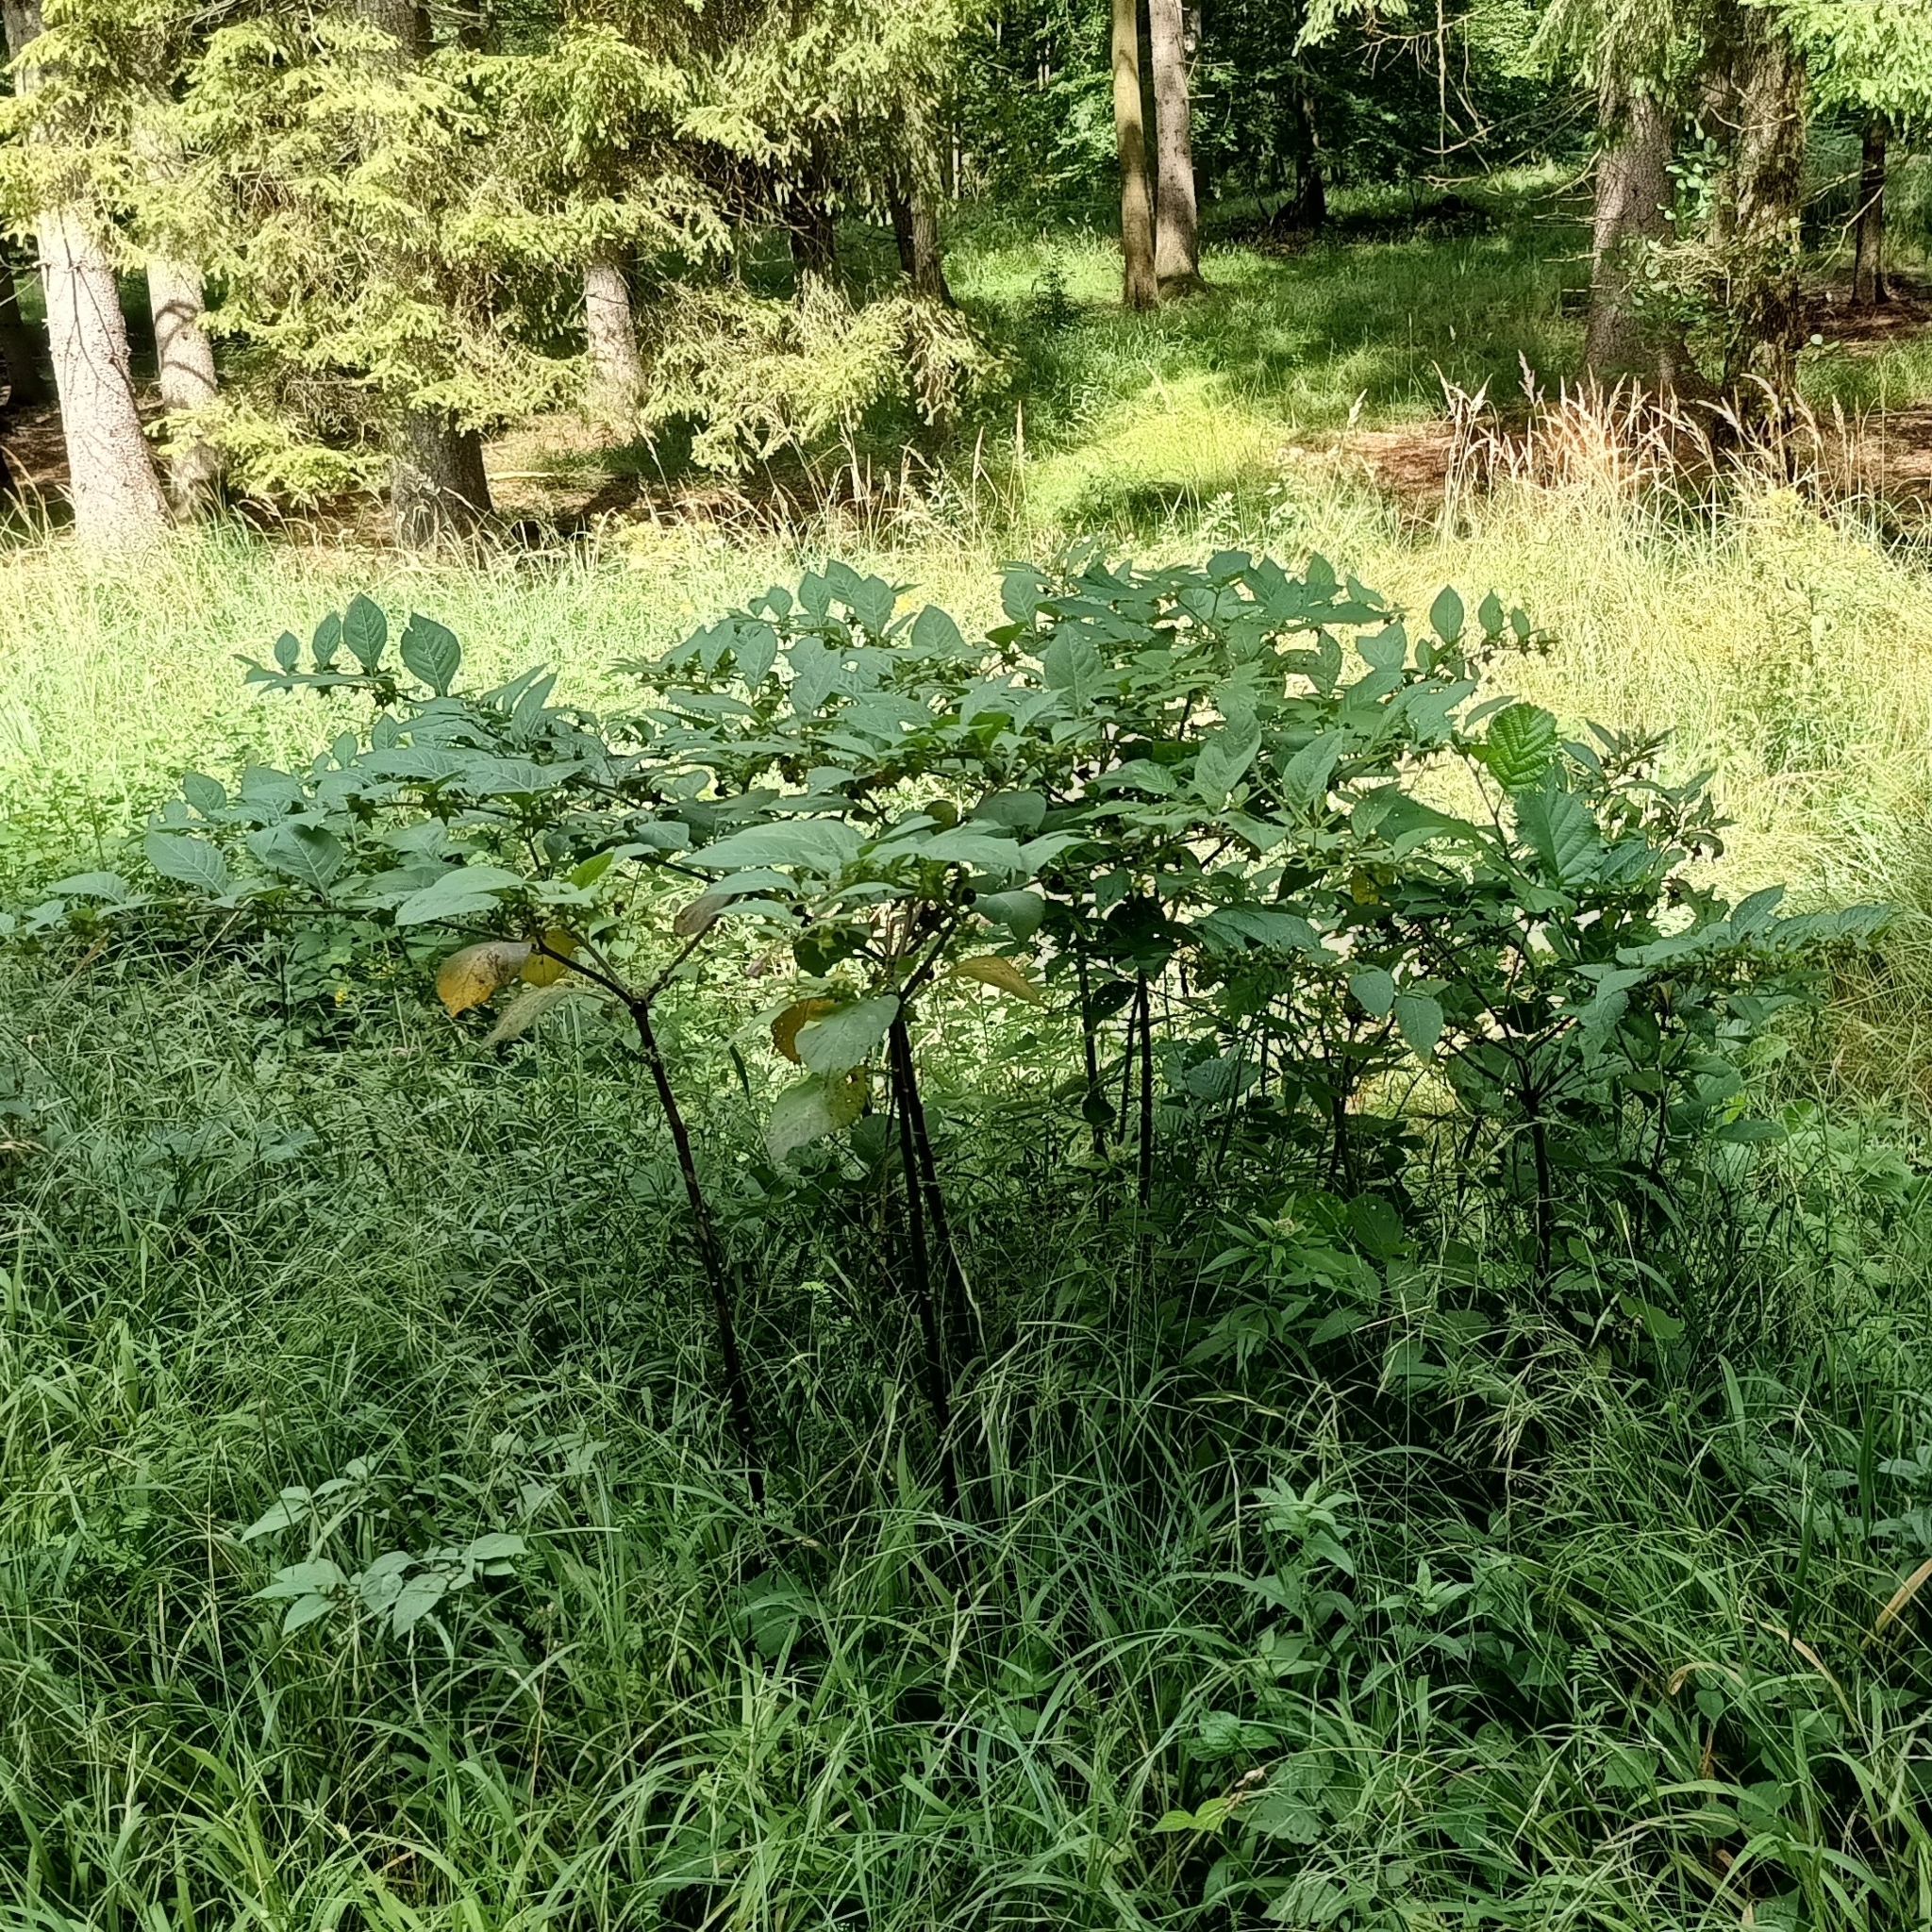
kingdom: Plantae
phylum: Tracheophyta
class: Magnoliopsida
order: Solanales
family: Solanaceae
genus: Atropa
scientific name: Atropa belladonna
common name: Deadly nightshade
